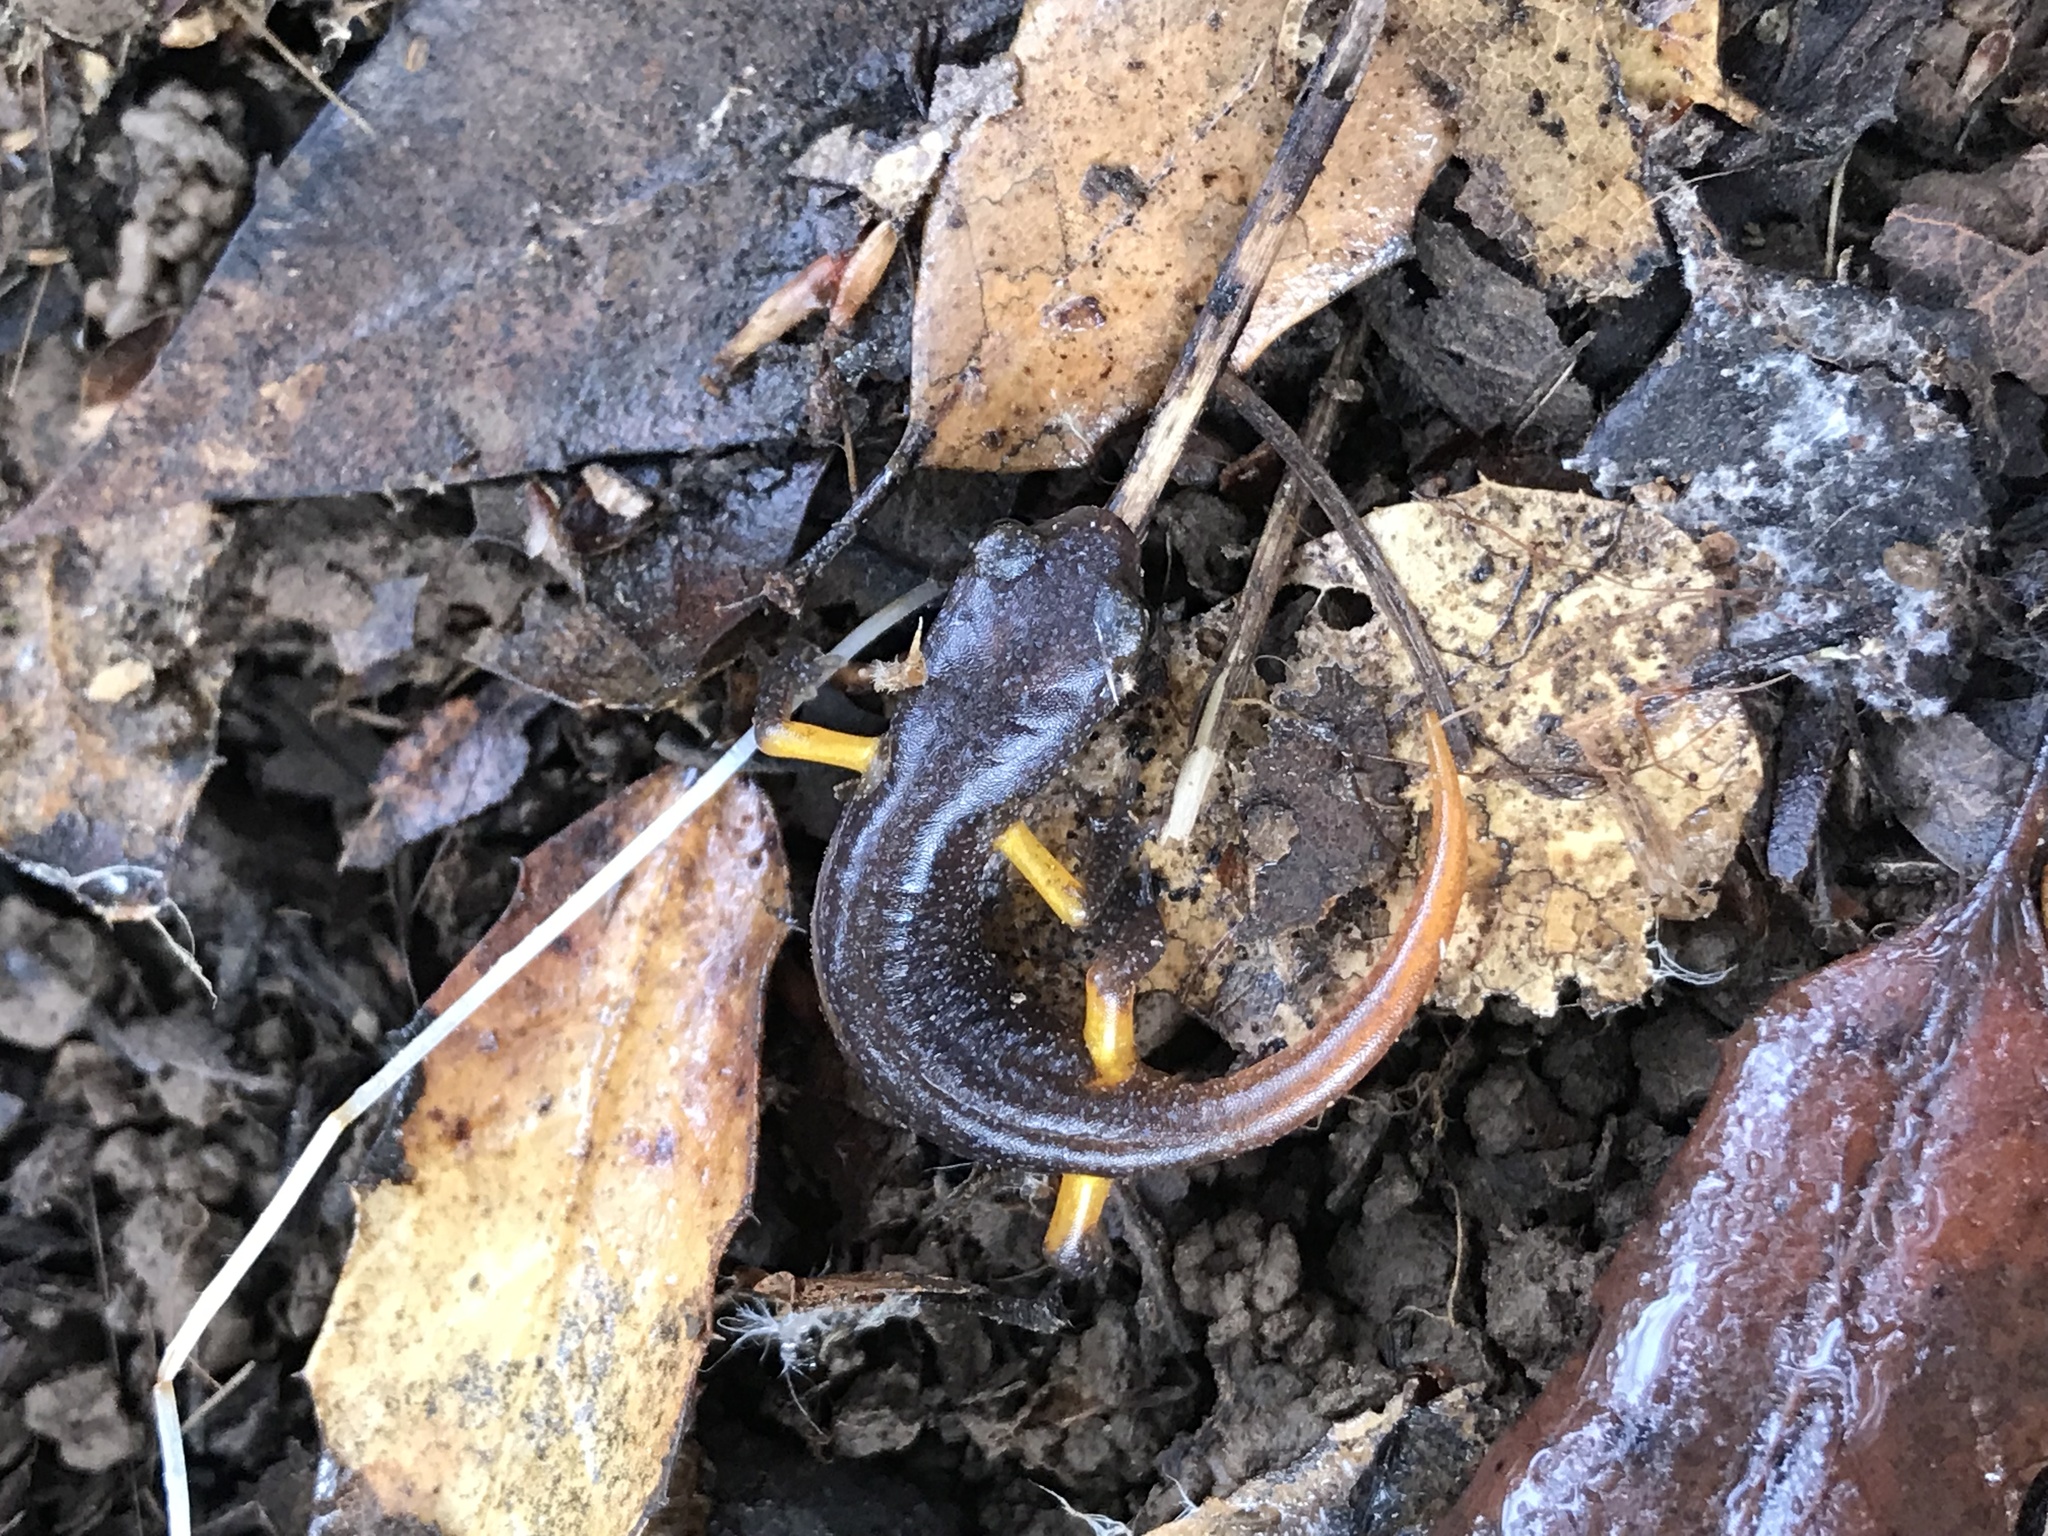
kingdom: Animalia
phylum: Chordata
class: Amphibia
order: Caudata
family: Plethodontidae
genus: Ensatina
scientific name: Ensatina eschscholtzii
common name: Ensatina
